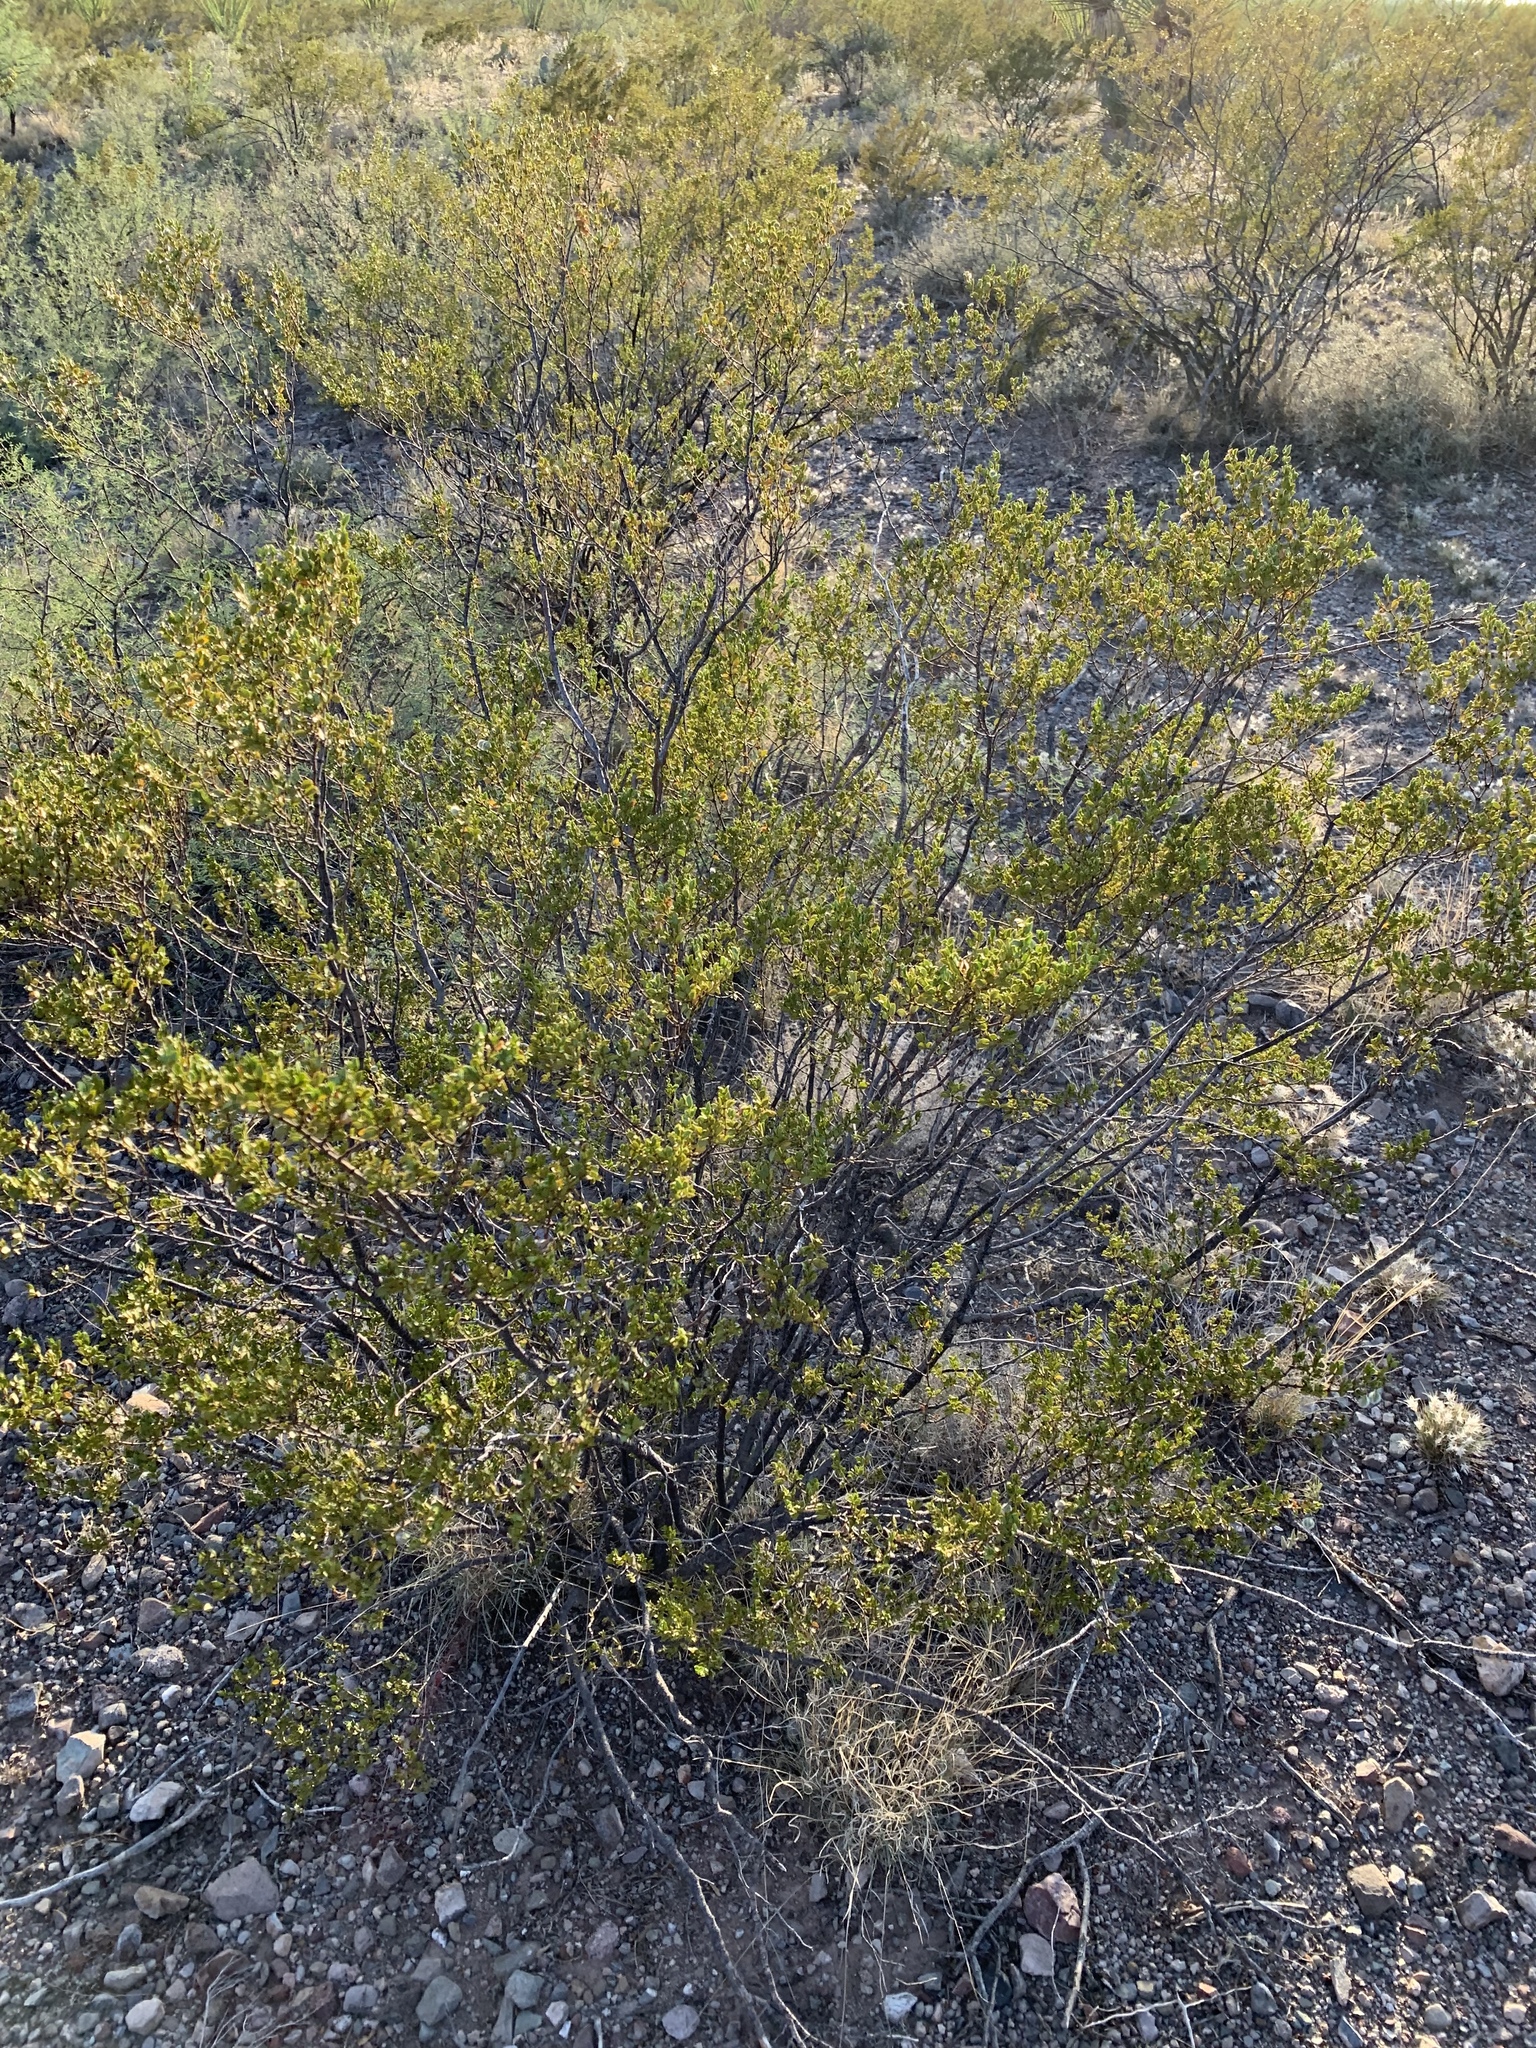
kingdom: Plantae
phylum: Tracheophyta
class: Magnoliopsida
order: Zygophyllales
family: Zygophyllaceae
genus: Larrea
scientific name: Larrea tridentata
